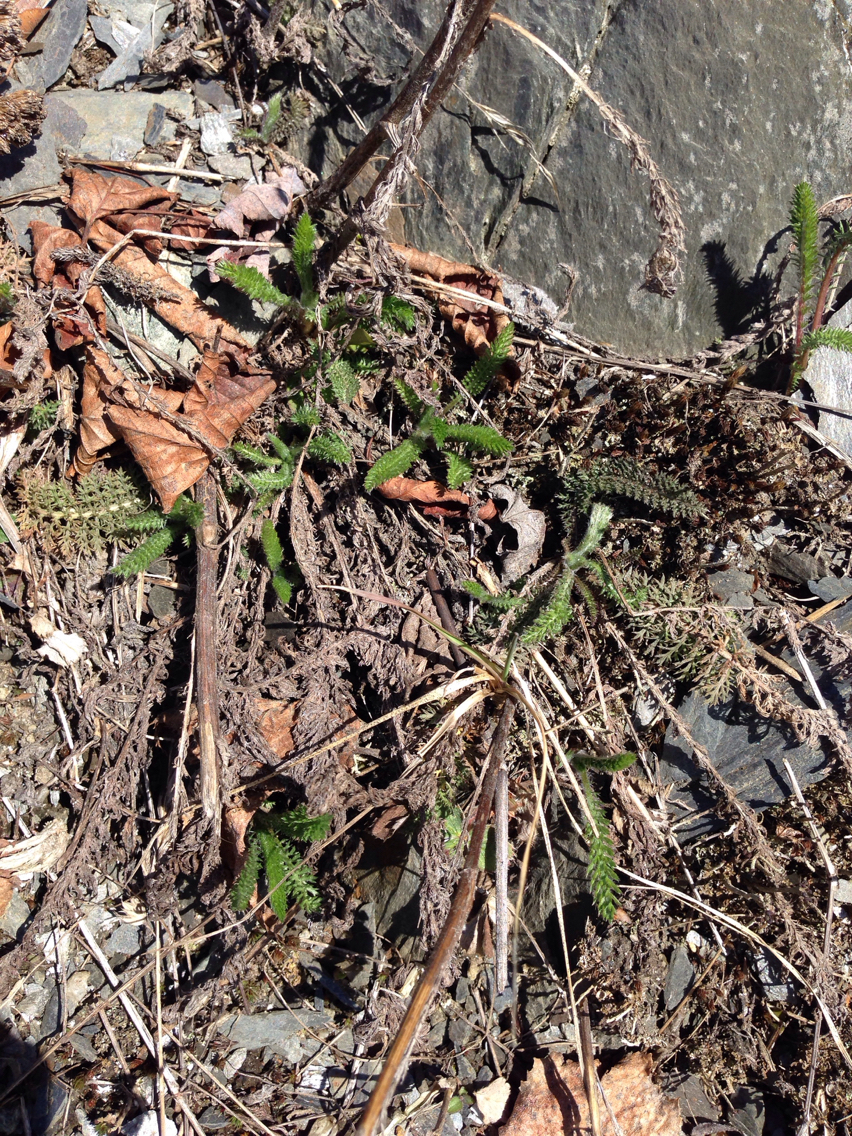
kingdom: Plantae
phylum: Tracheophyta
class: Magnoliopsida
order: Asterales
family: Asteraceae
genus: Achillea
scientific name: Achillea millefolium
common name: Yarrow
